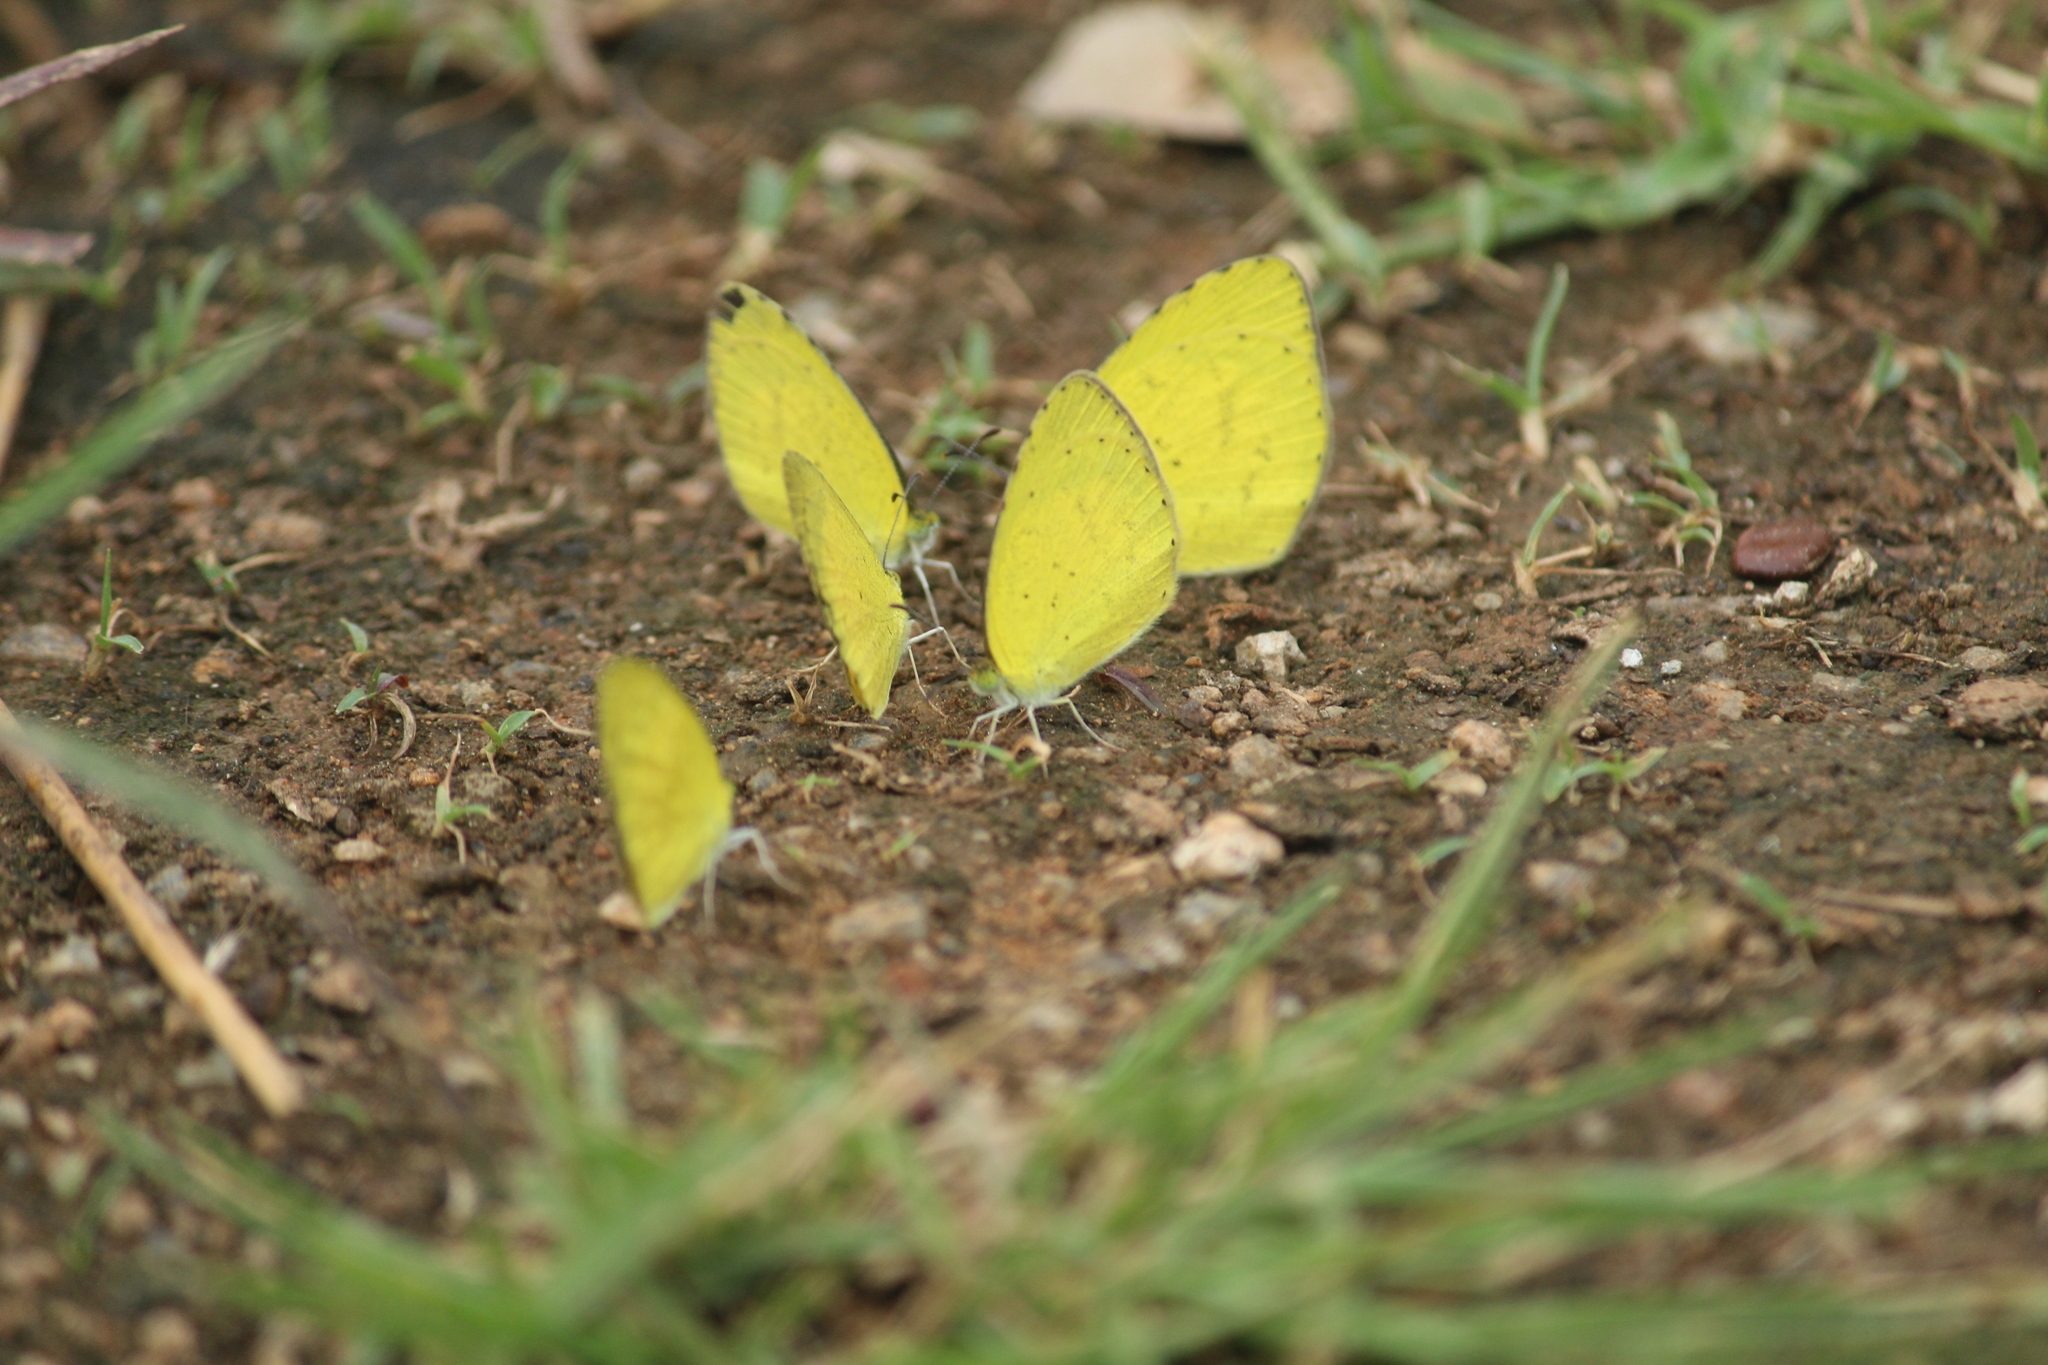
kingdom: Animalia
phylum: Arthropoda
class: Insecta
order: Lepidoptera
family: Pieridae
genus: Eurema
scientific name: Eurema brigitta
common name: Small grass yellow
